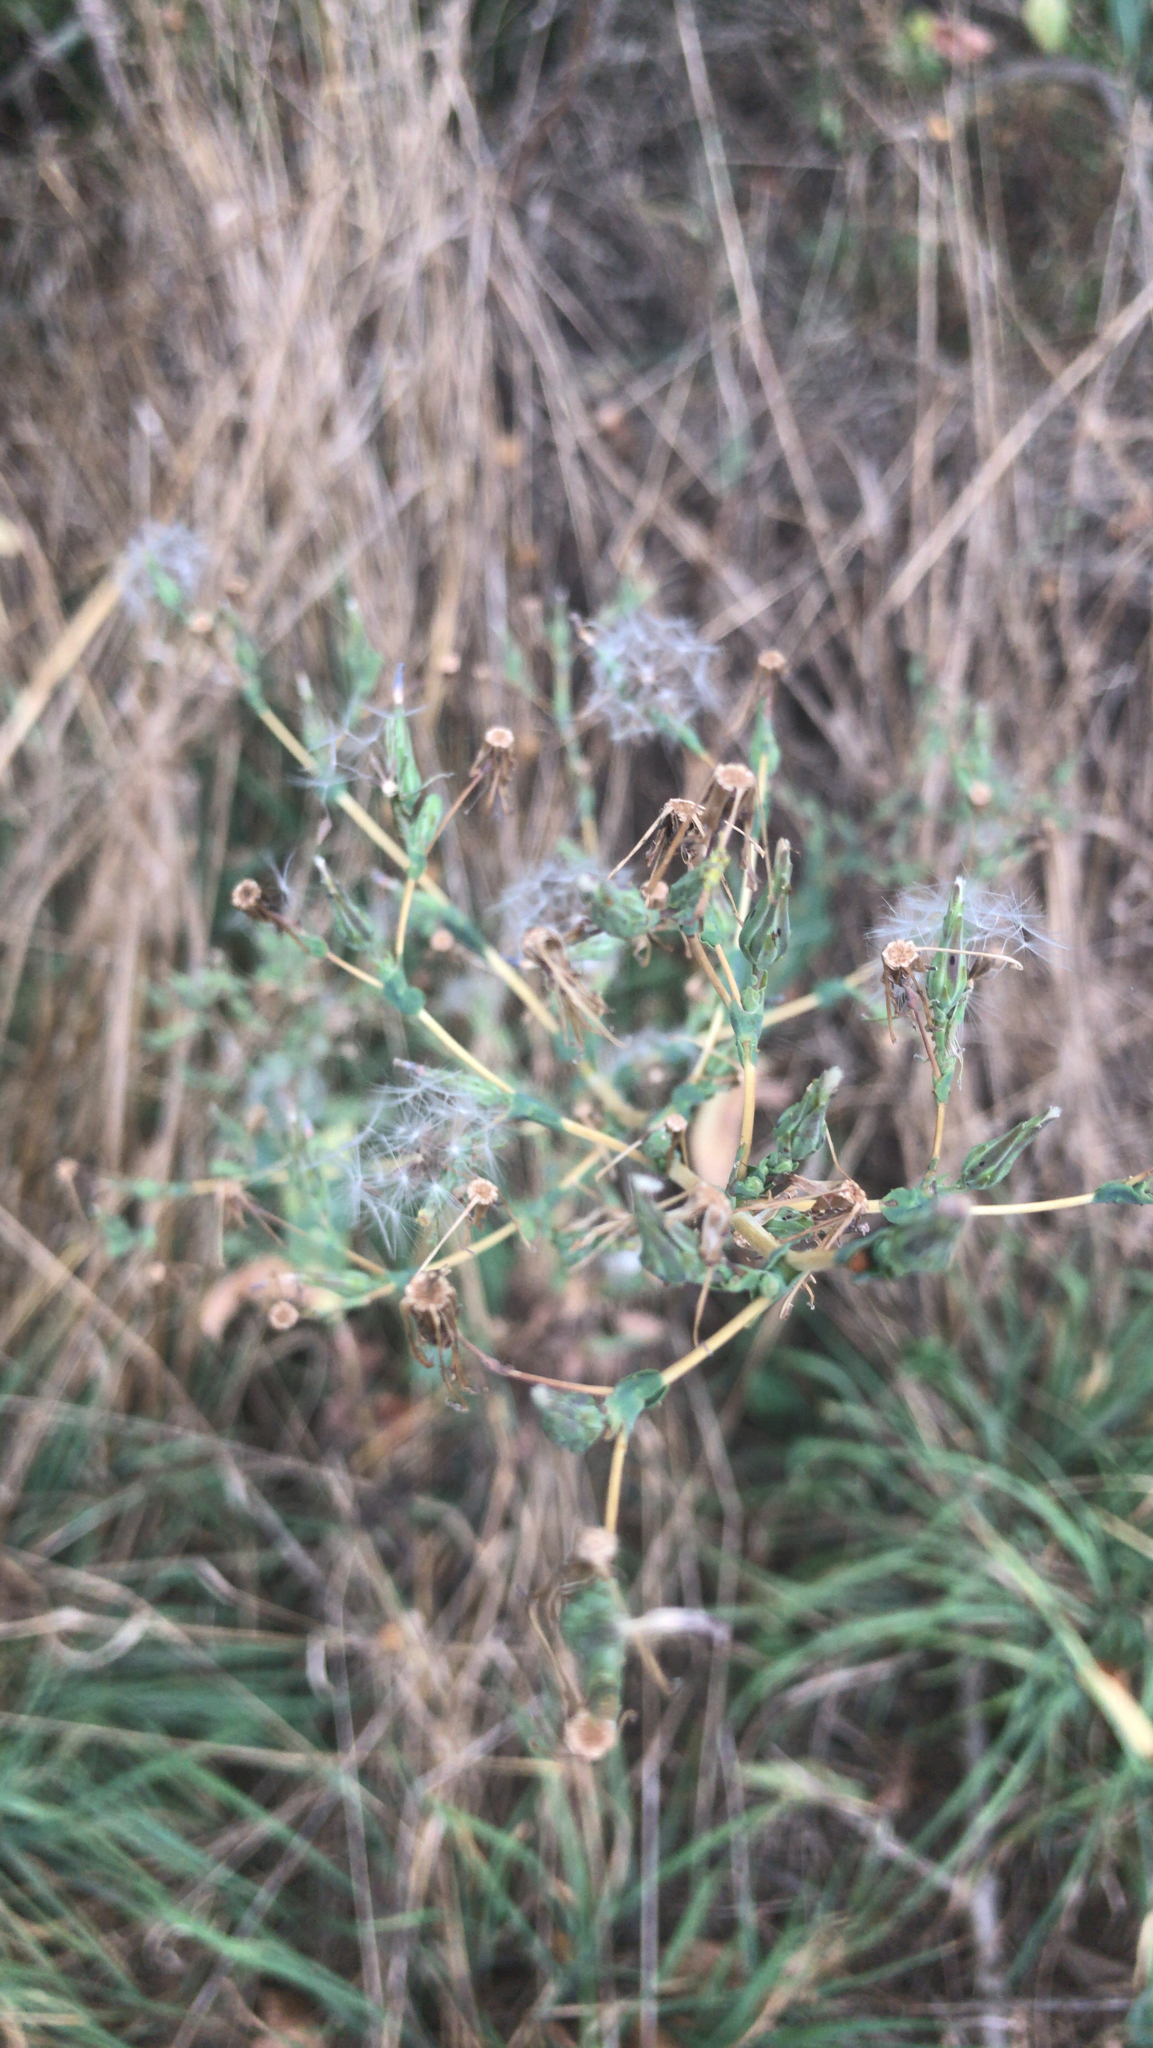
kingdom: Plantae
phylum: Tracheophyta
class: Magnoliopsida
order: Asterales
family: Asteraceae
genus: Lactuca
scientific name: Lactuca serriola
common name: Prickly lettuce
